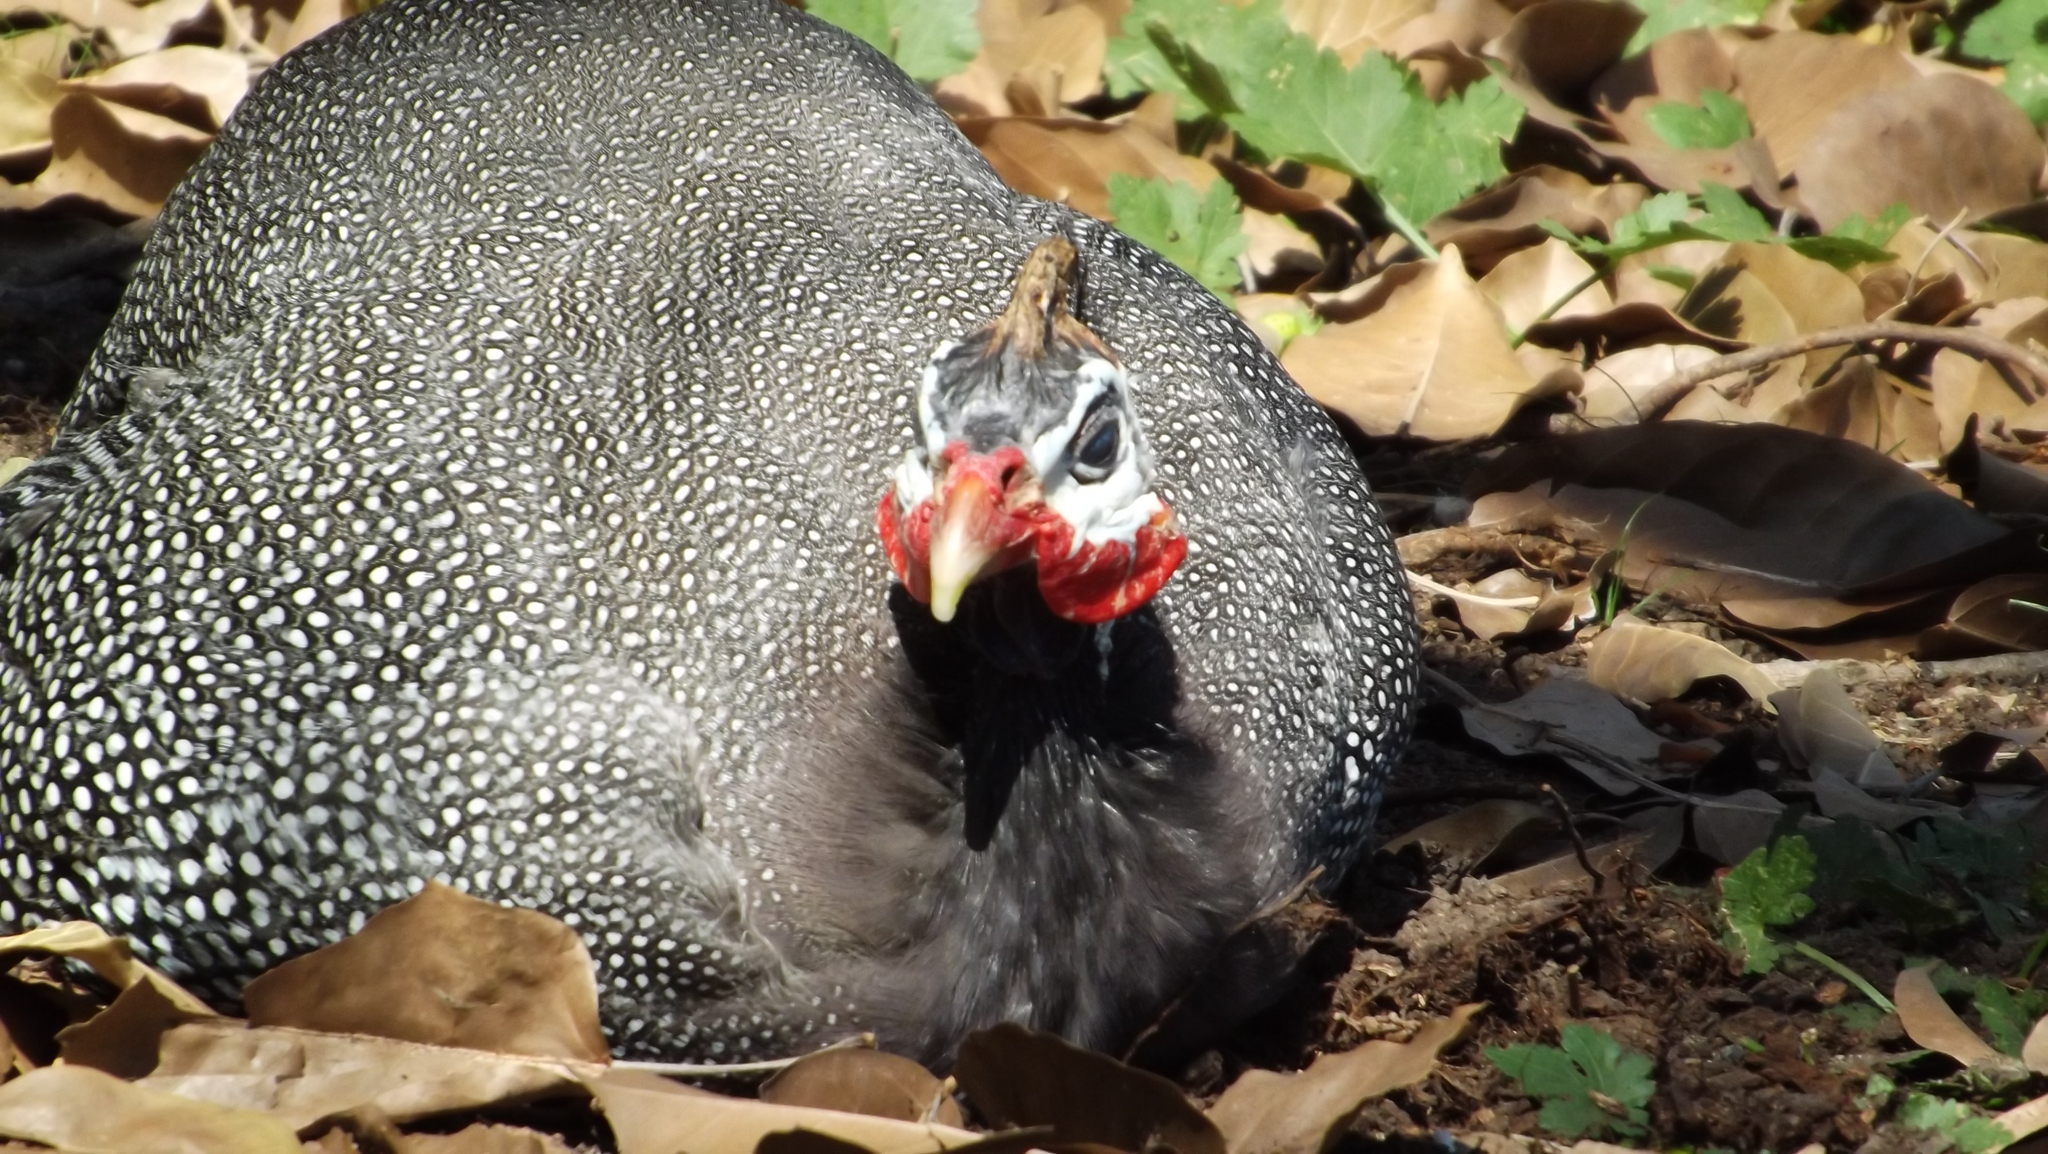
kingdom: Animalia
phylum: Chordata
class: Aves
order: Galliformes
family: Numididae
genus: Numida
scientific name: Numida meleagris
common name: Helmeted guineafowl
